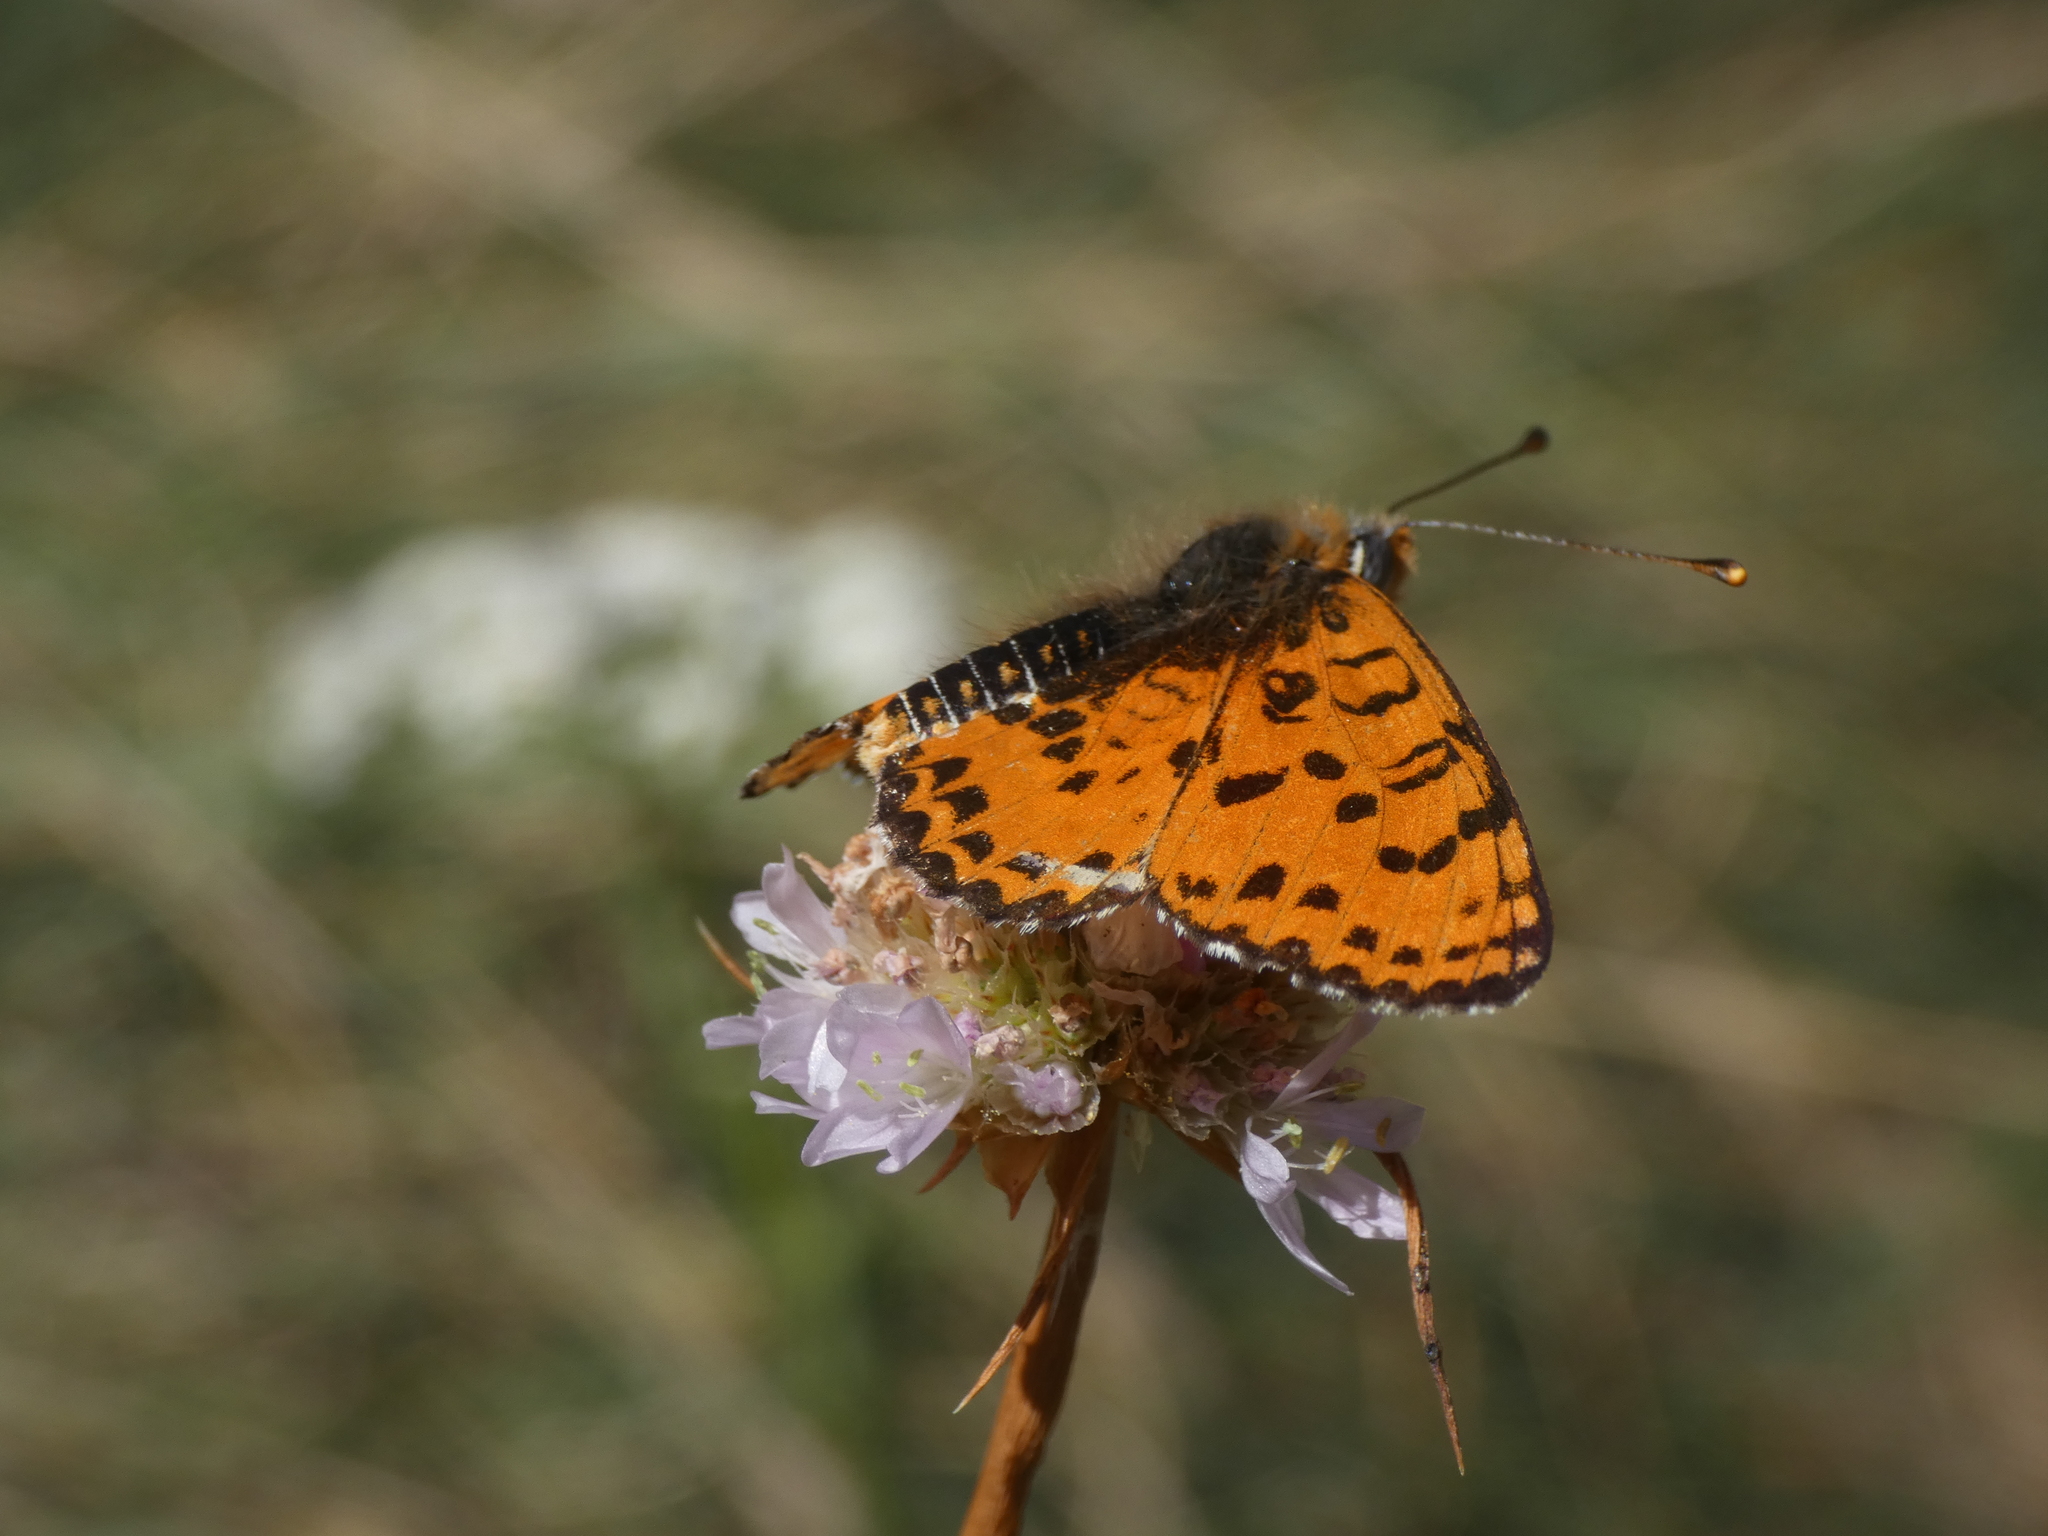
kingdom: Animalia
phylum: Arthropoda
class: Insecta
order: Lepidoptera
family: Nymphalidae
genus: Melitaea
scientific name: Melitaea didyma
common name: Spotted fritillary
